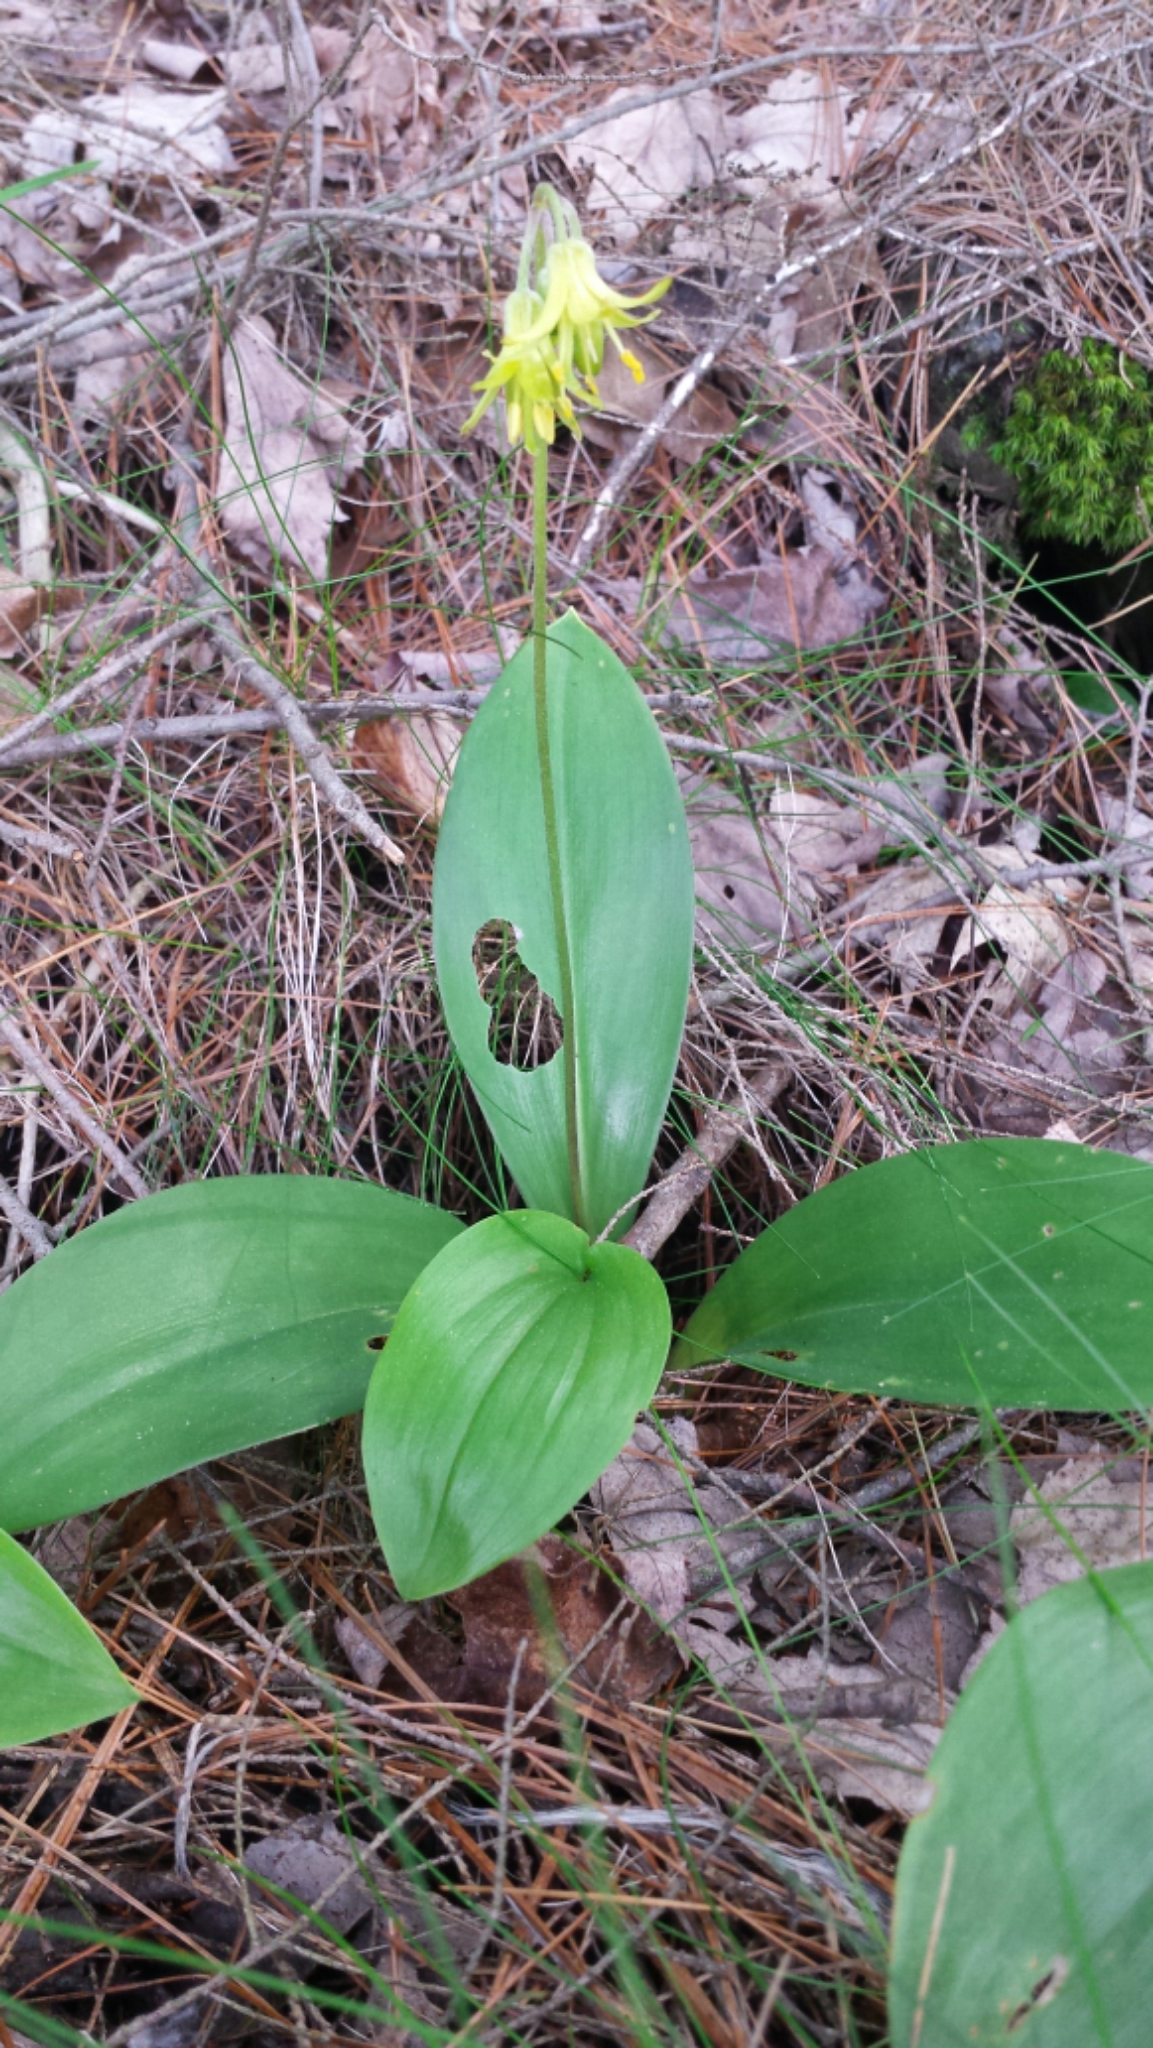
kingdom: Plantae
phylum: Tracheophyta
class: Liliopsida
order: Liliales
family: Liliaceae
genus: Clintonia
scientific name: Clintonia borealis
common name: Yellow clintonia
